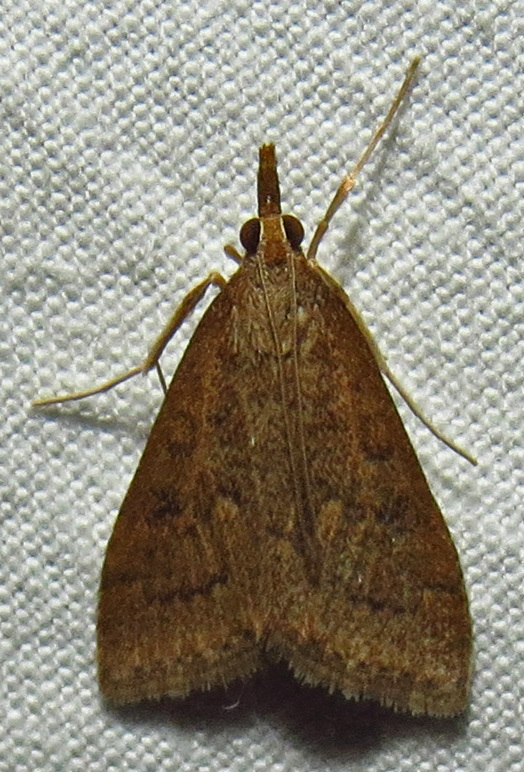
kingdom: Animalia
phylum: Arthropoda
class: Insecta
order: Lepidoptera
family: Crambidae
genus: Udea
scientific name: Udea rubigalis
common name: Celery leaftier moth
